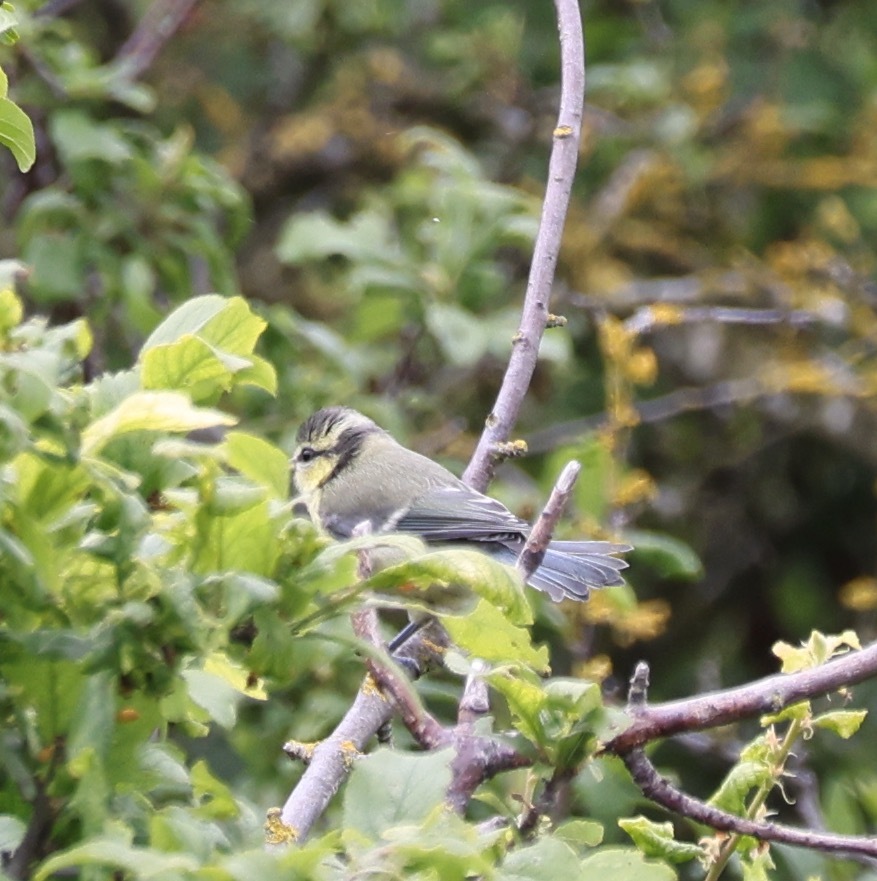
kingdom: Animalia
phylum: Chordata
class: Aves
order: Passeriformes
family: Paridae
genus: Cyanistes
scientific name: Cyanistes caeruleus
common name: Eurasian blue tit
